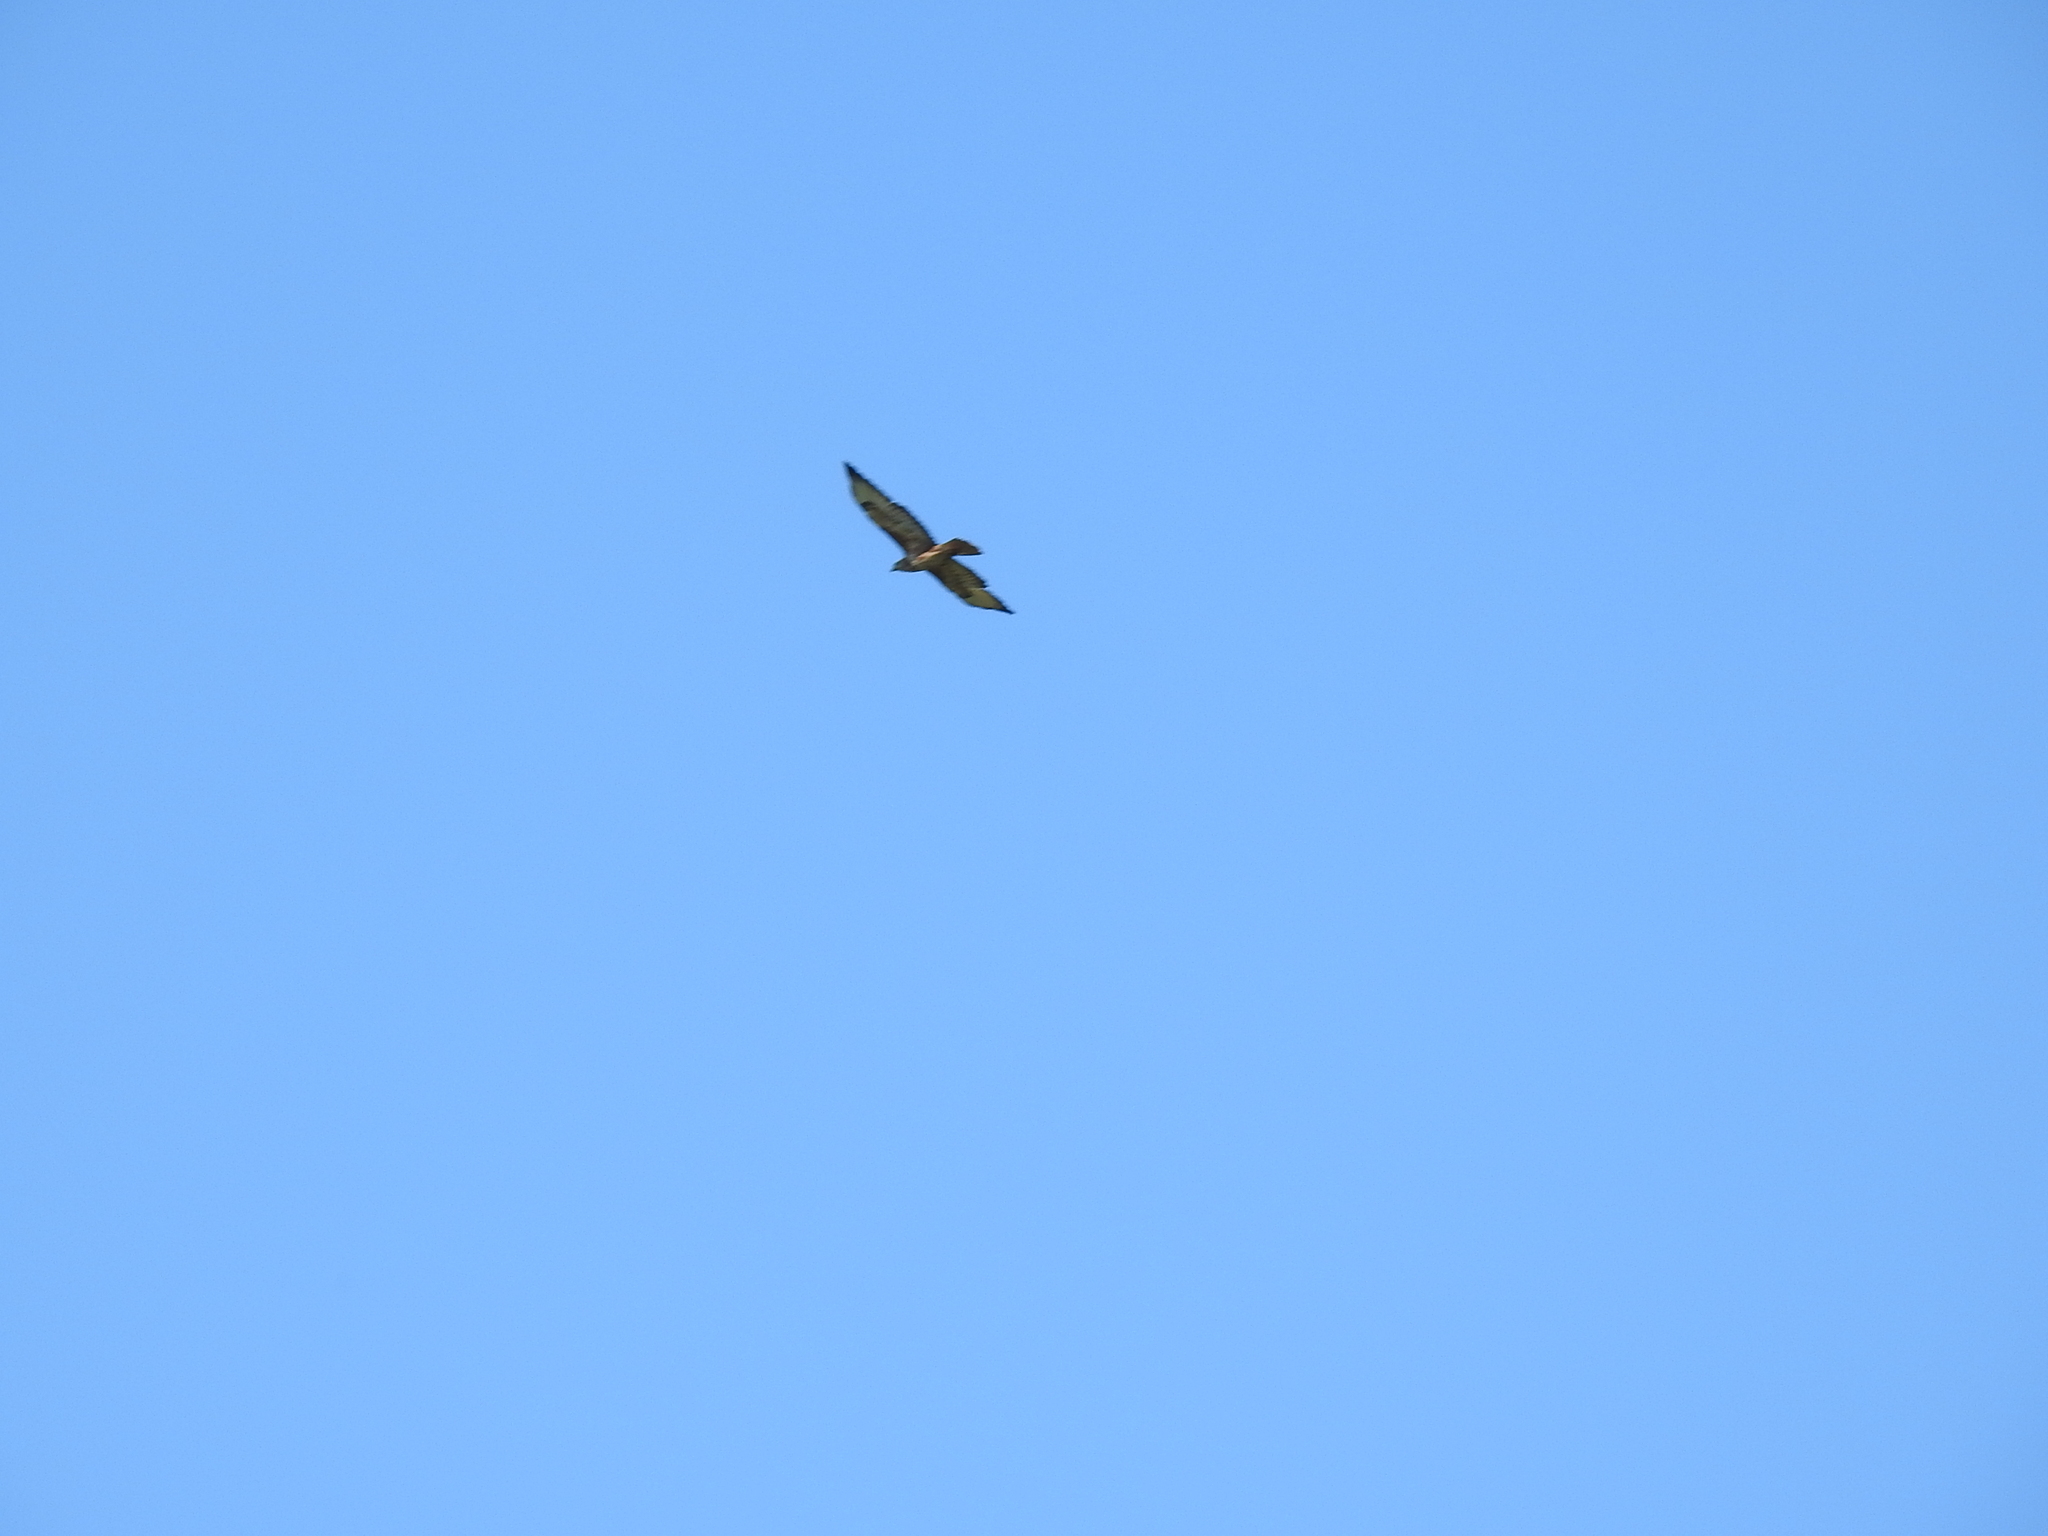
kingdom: Animalia
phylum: Chordata
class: Aves
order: Accipitriformes
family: Accipitridae
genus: Buteo
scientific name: Buteo buteo
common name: Common buzzard
